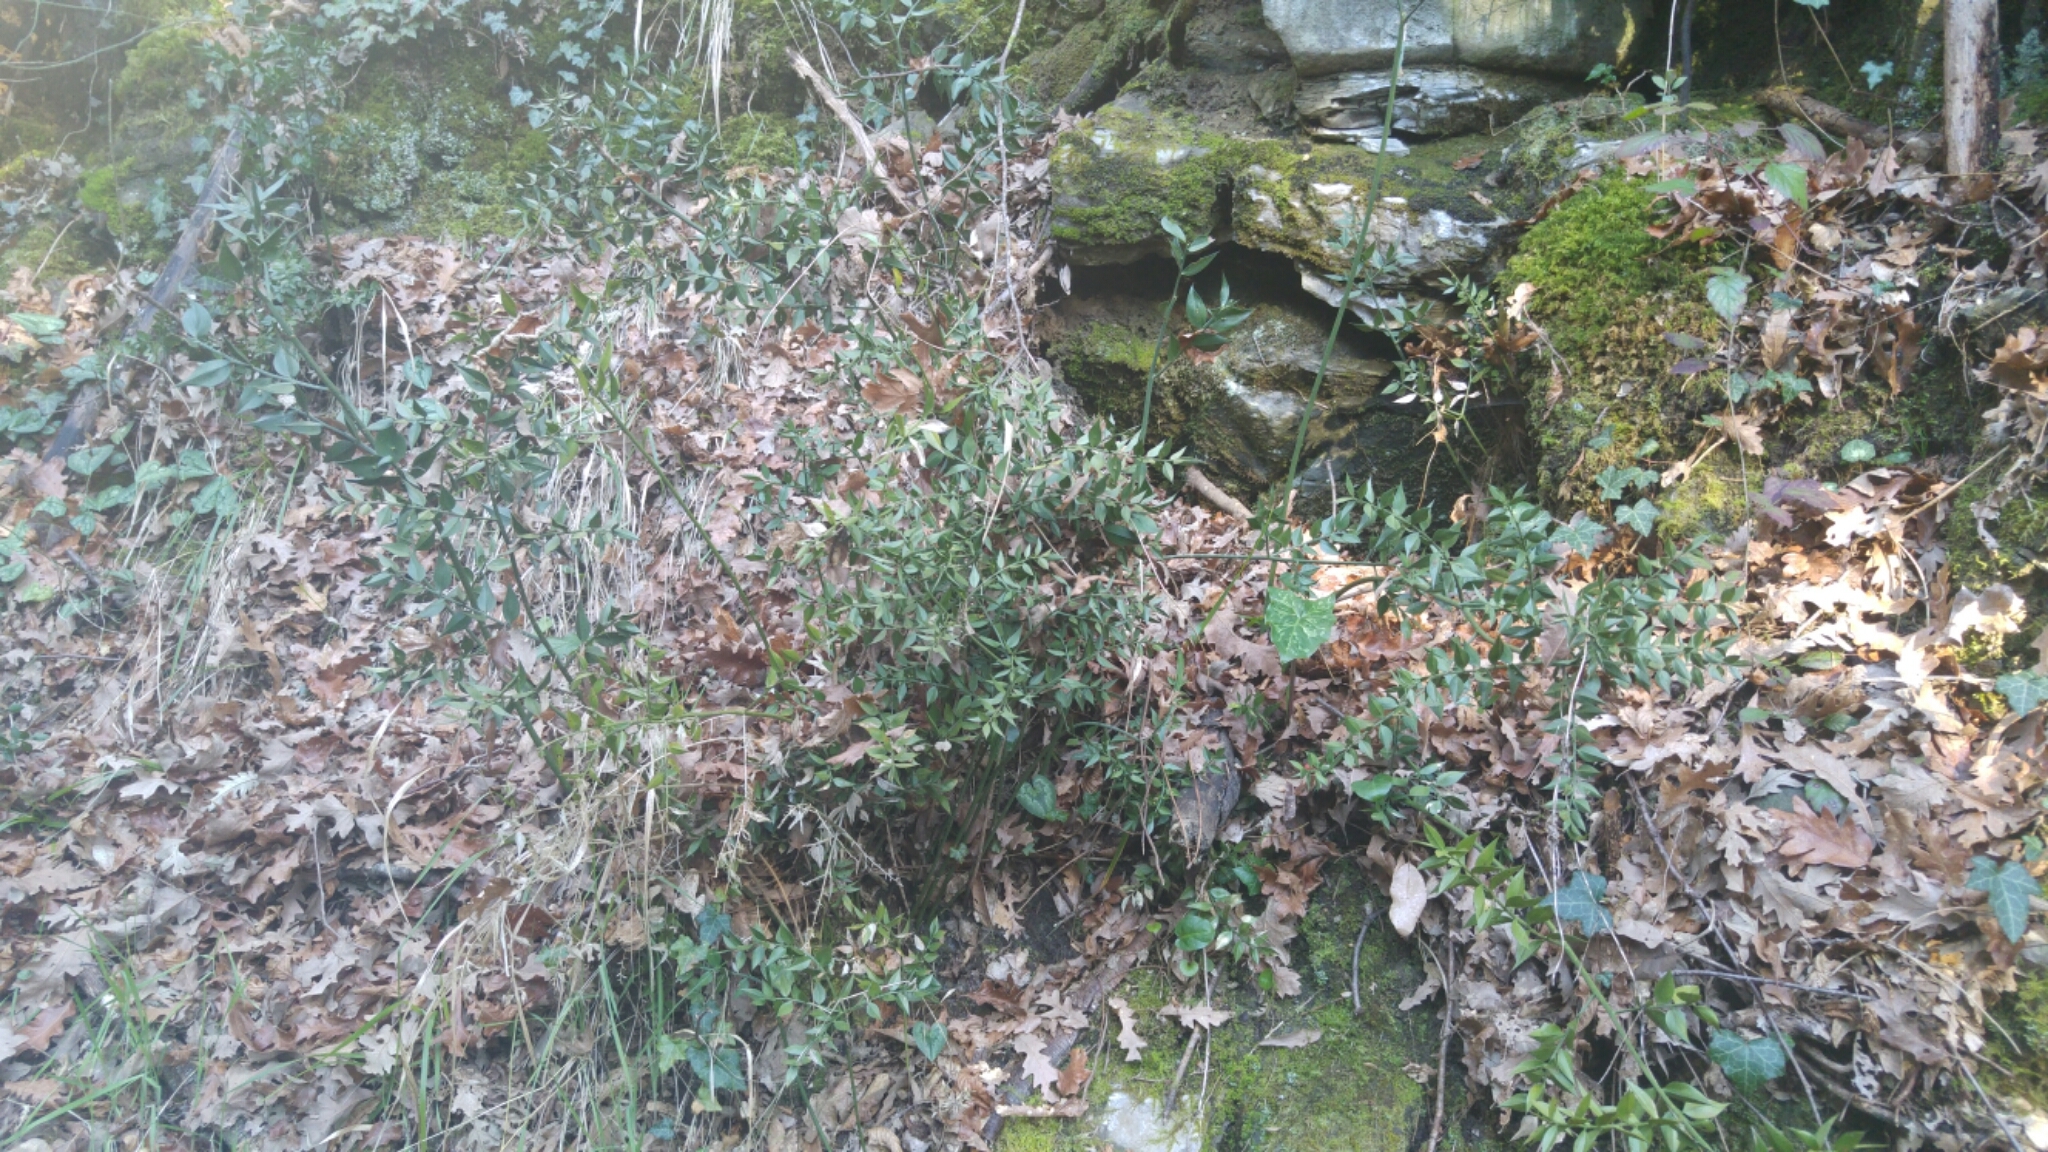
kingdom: Plantae
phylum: Tracheophyta
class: Liliopsida
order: Asparagales
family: Asparagaceae
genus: Ruscus
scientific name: Ruscus aculeatus
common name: Butcher's-broom
